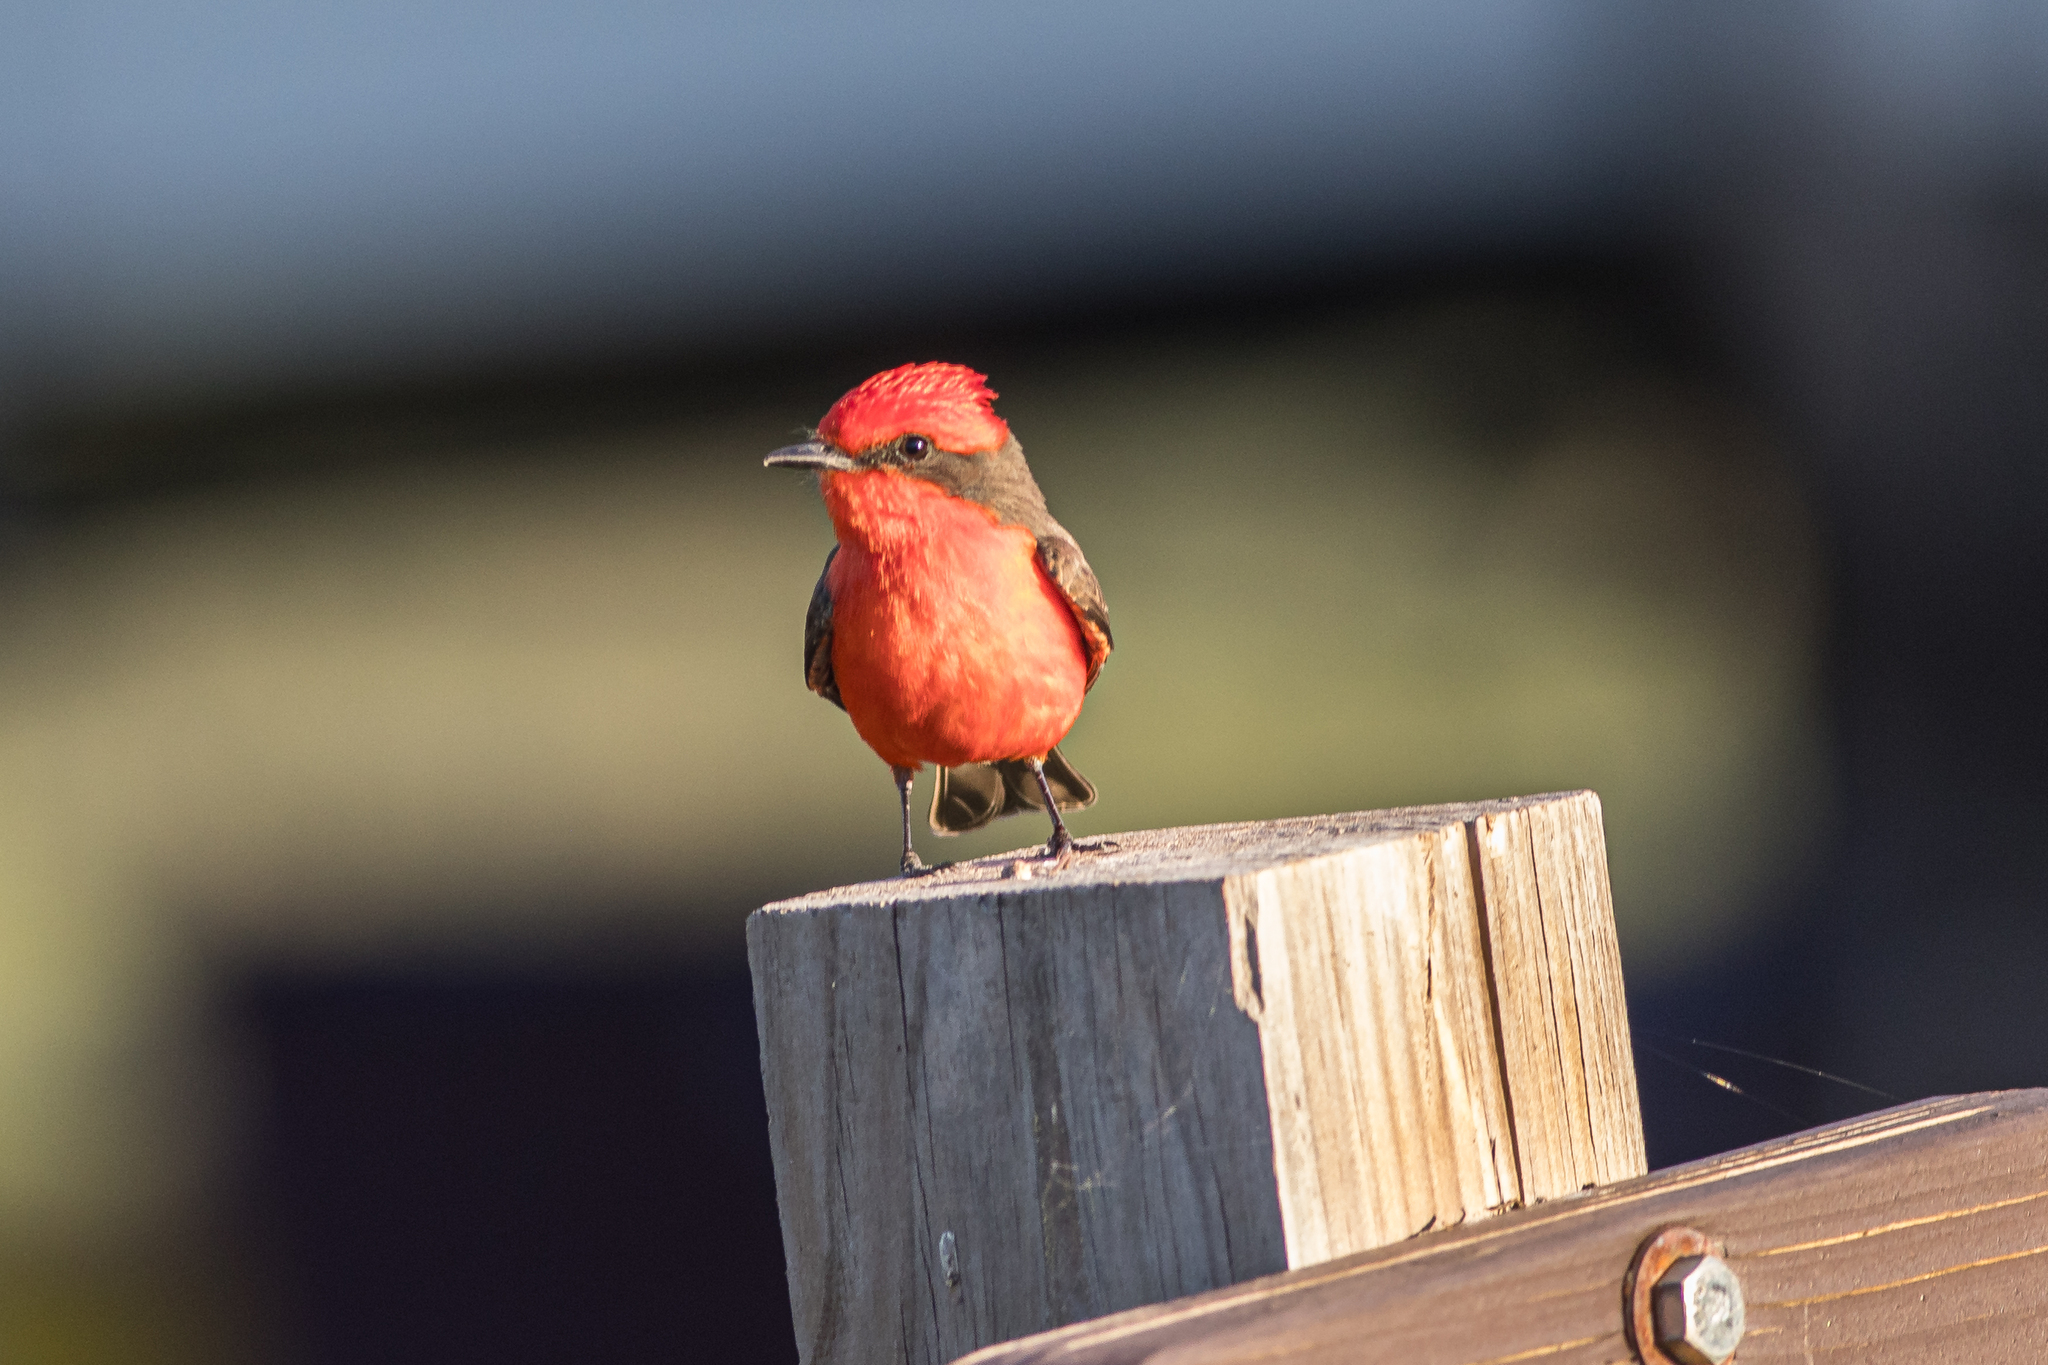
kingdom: Animalia
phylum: Chordata
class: Aves
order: Passeriformes
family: Tyrannidae
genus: Pyrocephalus
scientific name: Pyrocephalus rubinus
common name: Vermilion flycatcher
